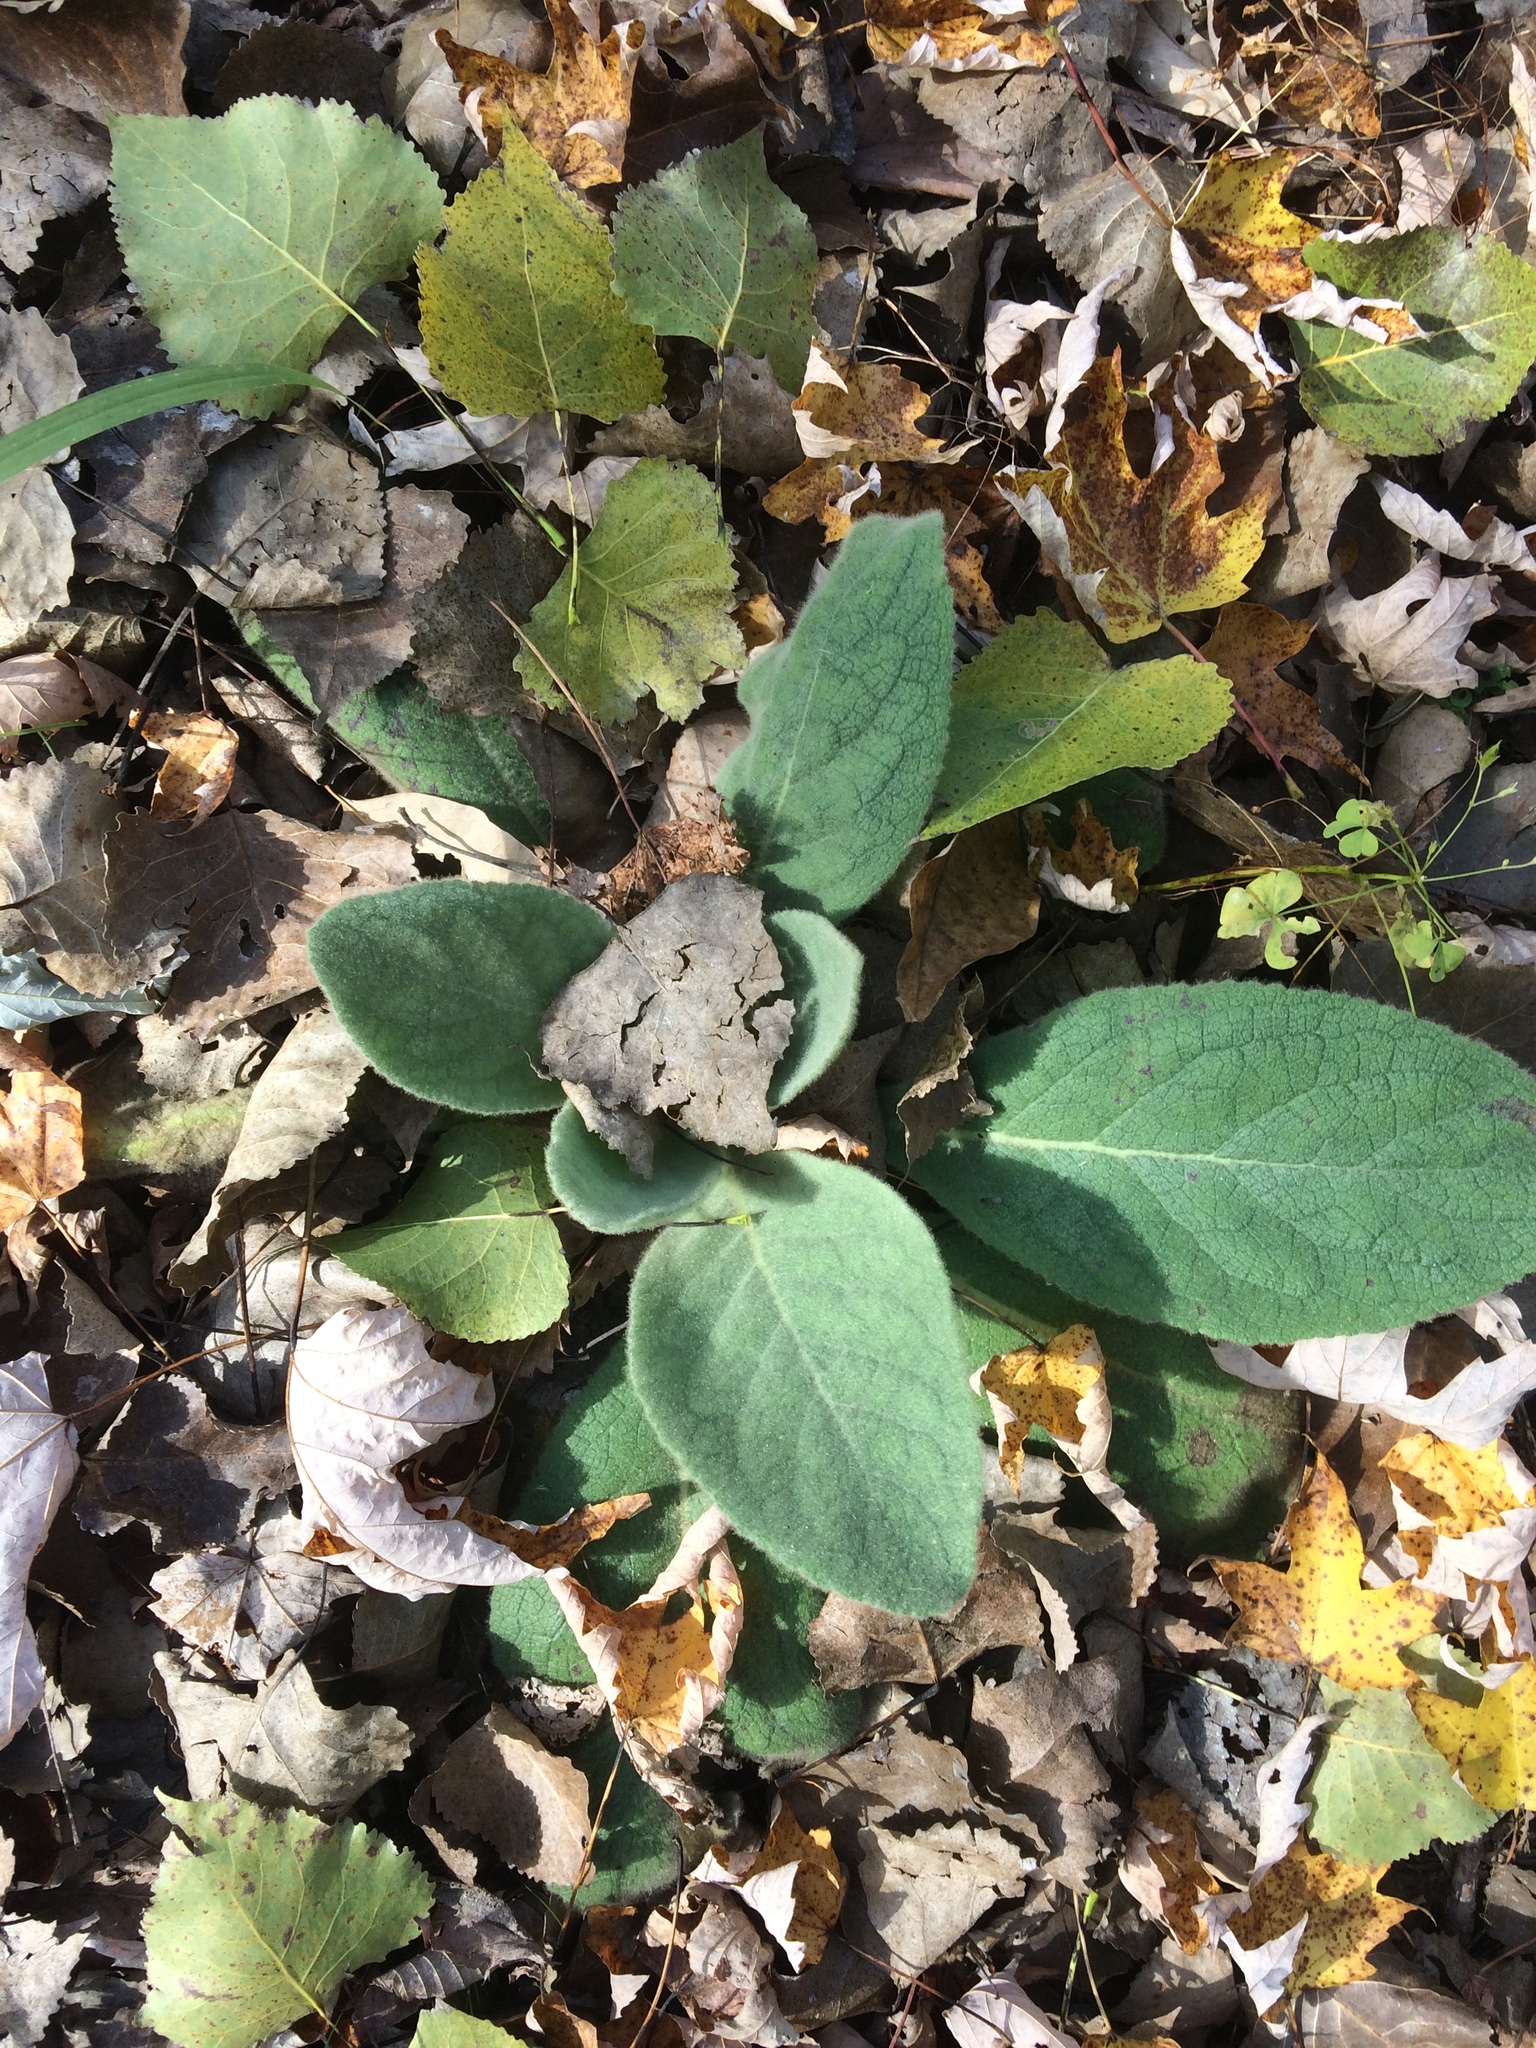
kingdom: Plantae
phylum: Tracheophyta
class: Magnoliopsida
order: Lamiales
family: Scrophulariaceae
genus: Verbascum
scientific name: Verbascum thapsus
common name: Common mullein
